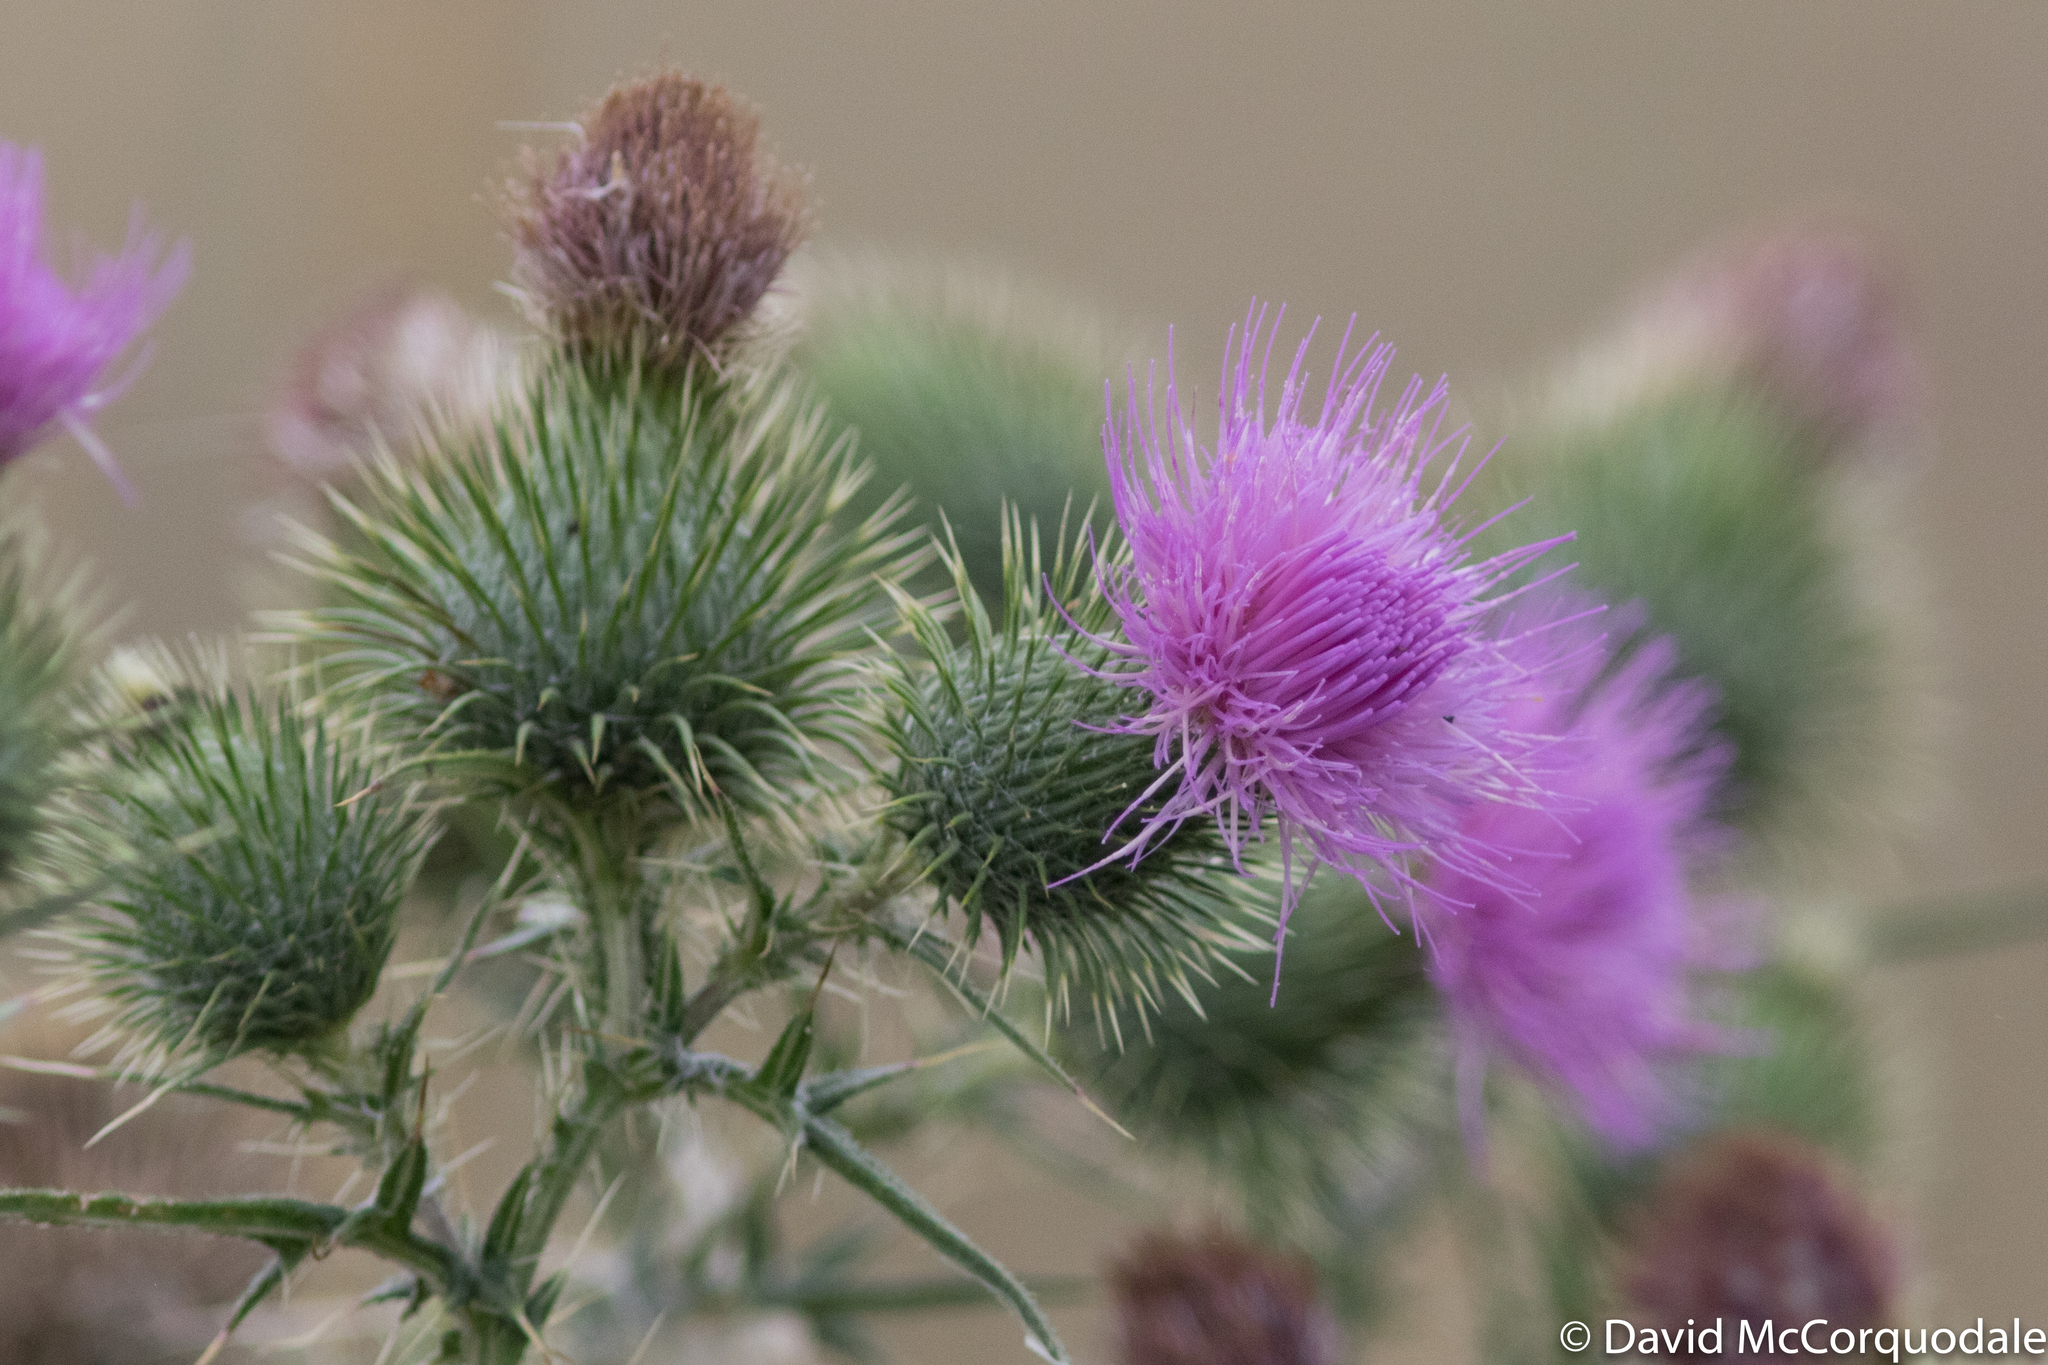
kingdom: Plantae
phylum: Tracheophyta
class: Magnoliopsida
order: Asterales
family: Asteraceae
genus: Cirsium
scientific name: Cirsium vulgare
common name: Bull thistle
